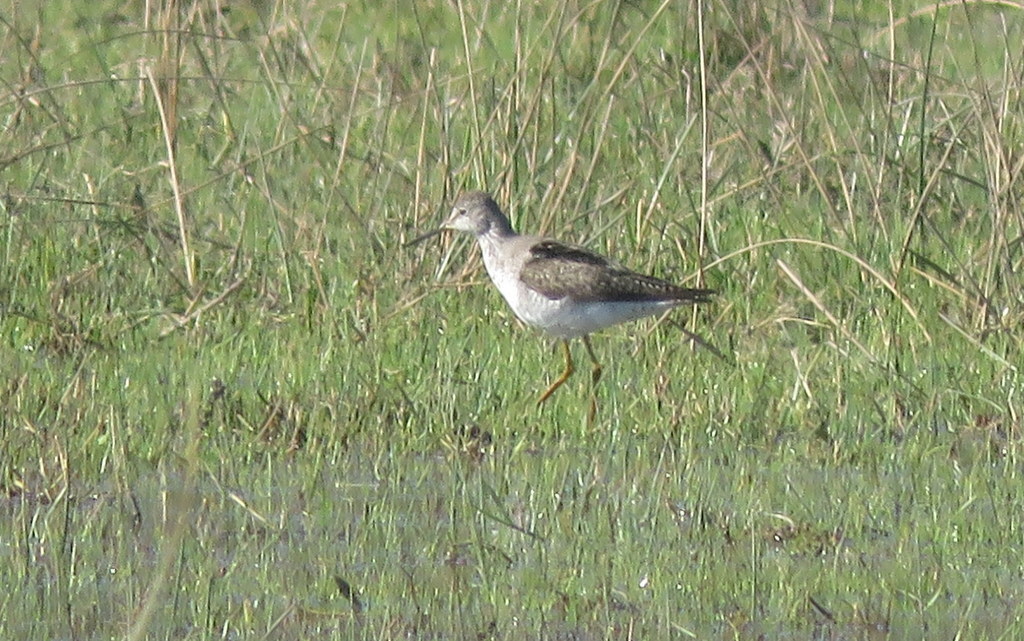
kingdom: Animalia
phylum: Chordata
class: Aves
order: Charadriiformes
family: Scolopacidae
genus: Tringa
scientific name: Tringa flavipes
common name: Lesser yellowlegs
